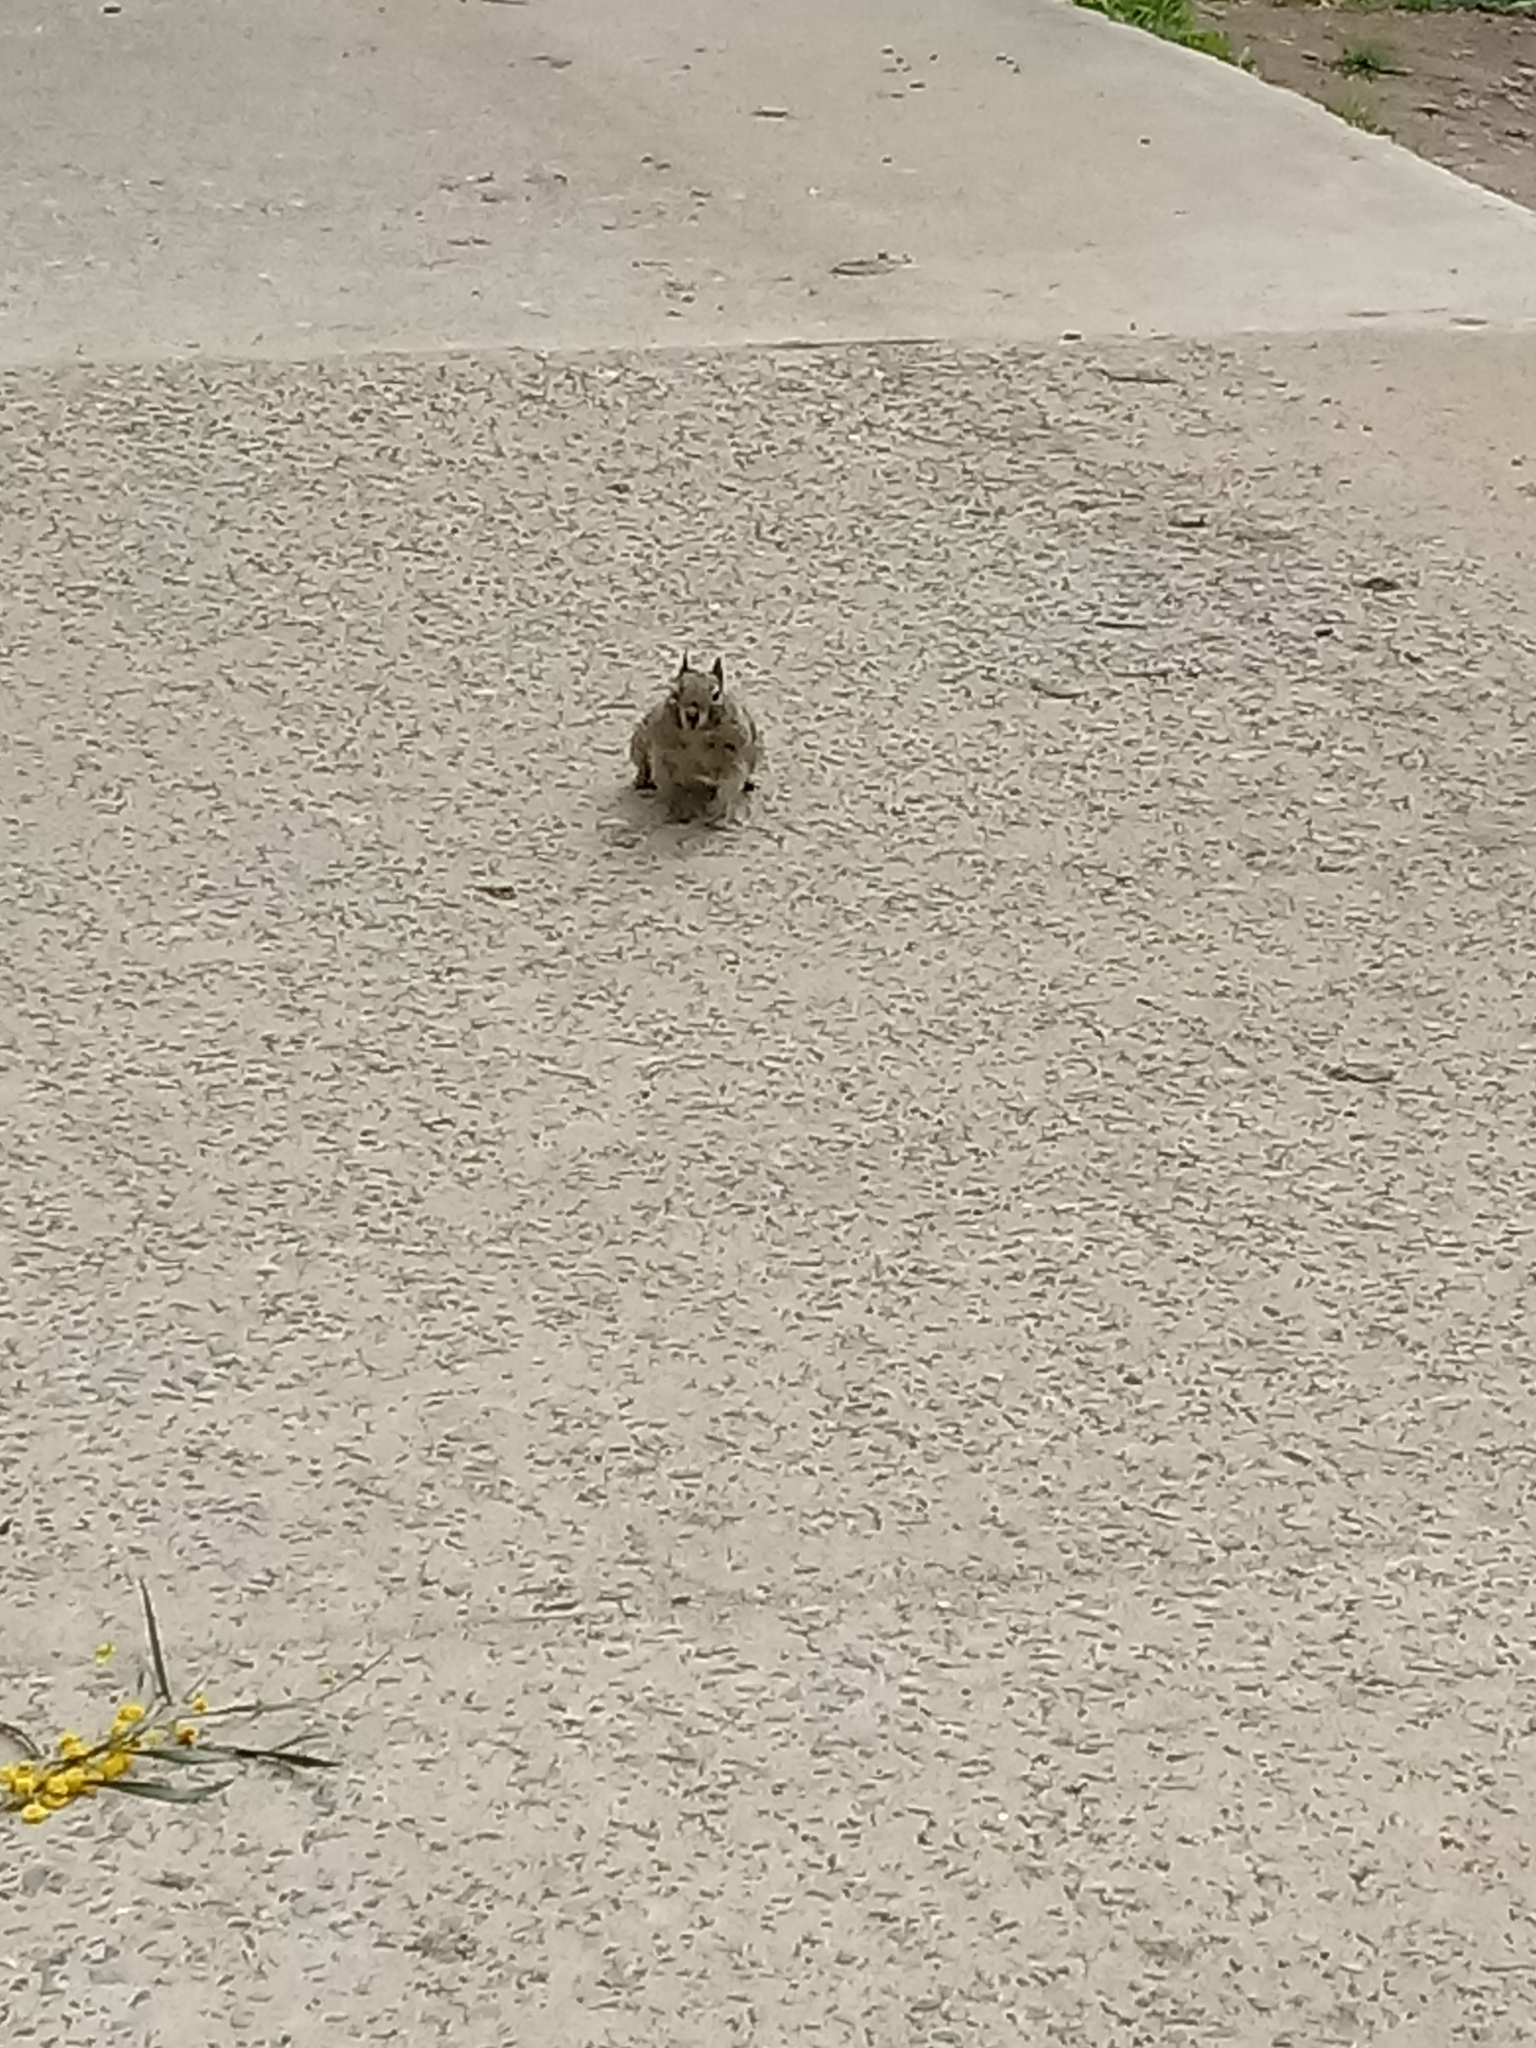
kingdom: Animalia
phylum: Chordata
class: Mammalia
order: Rodentia
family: Sciuridae
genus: Otospermophilus
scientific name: Otospermophilus beecheyi
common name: California ground squirrel
